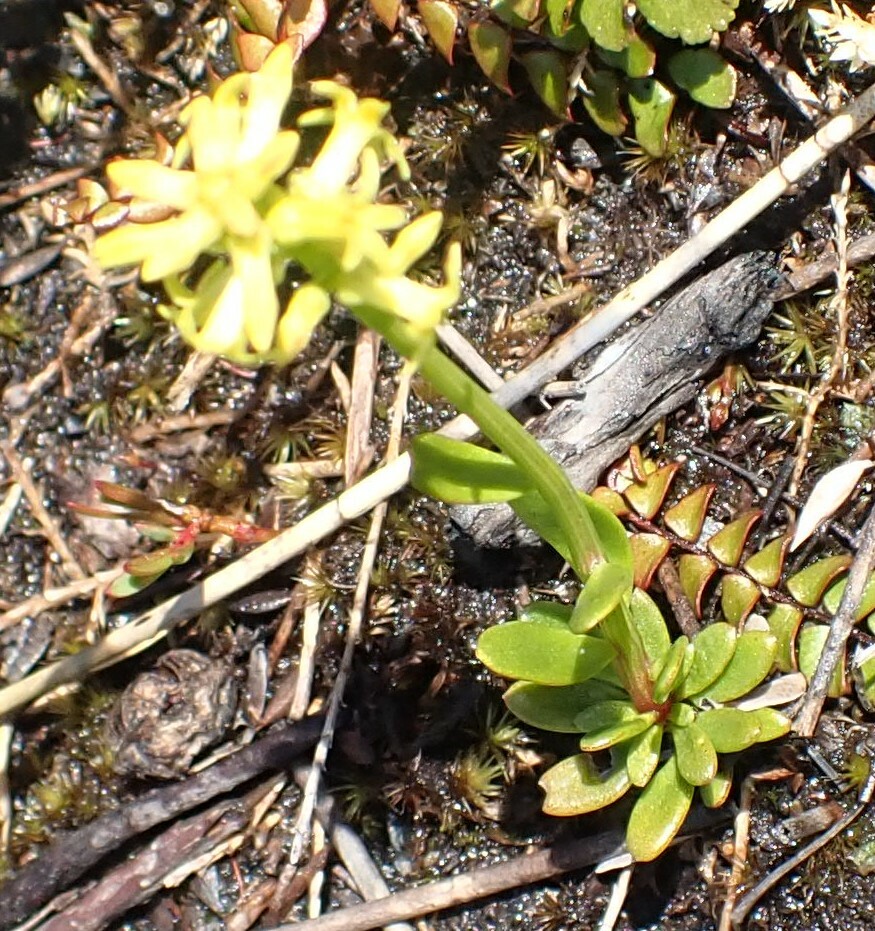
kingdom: Plantae
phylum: Tracheophyta
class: Magnoliopsida
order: Celastrales
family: Celastraceae
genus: Stackhousia
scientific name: Stackhousia viminea
